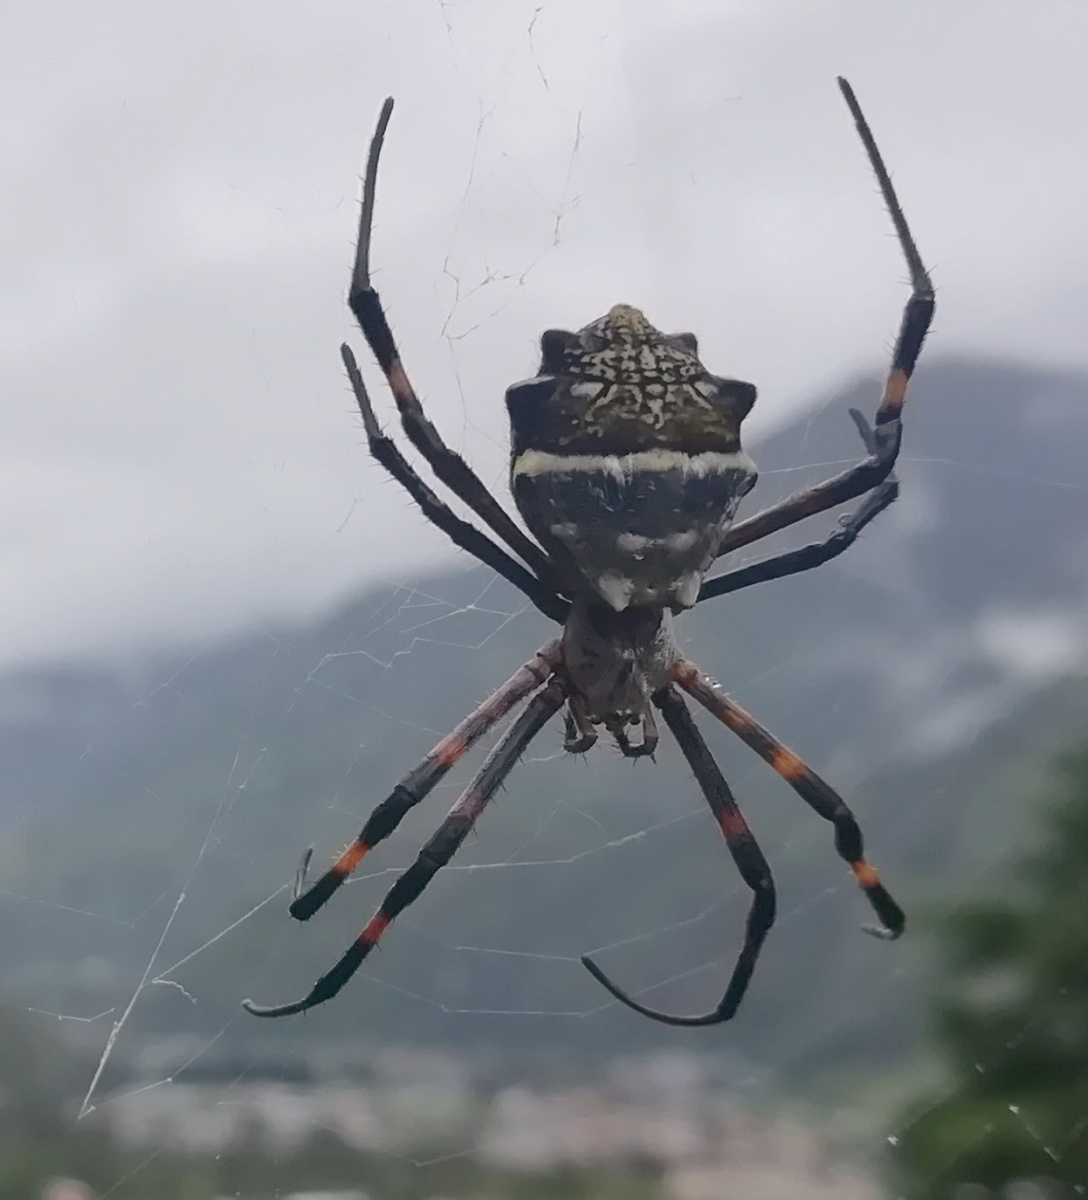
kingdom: Animalia
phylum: Arthropoda
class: Arachnida
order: Araneae
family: Araneidae
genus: Argiope
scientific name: Argiope argentata
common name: Orb weavers
